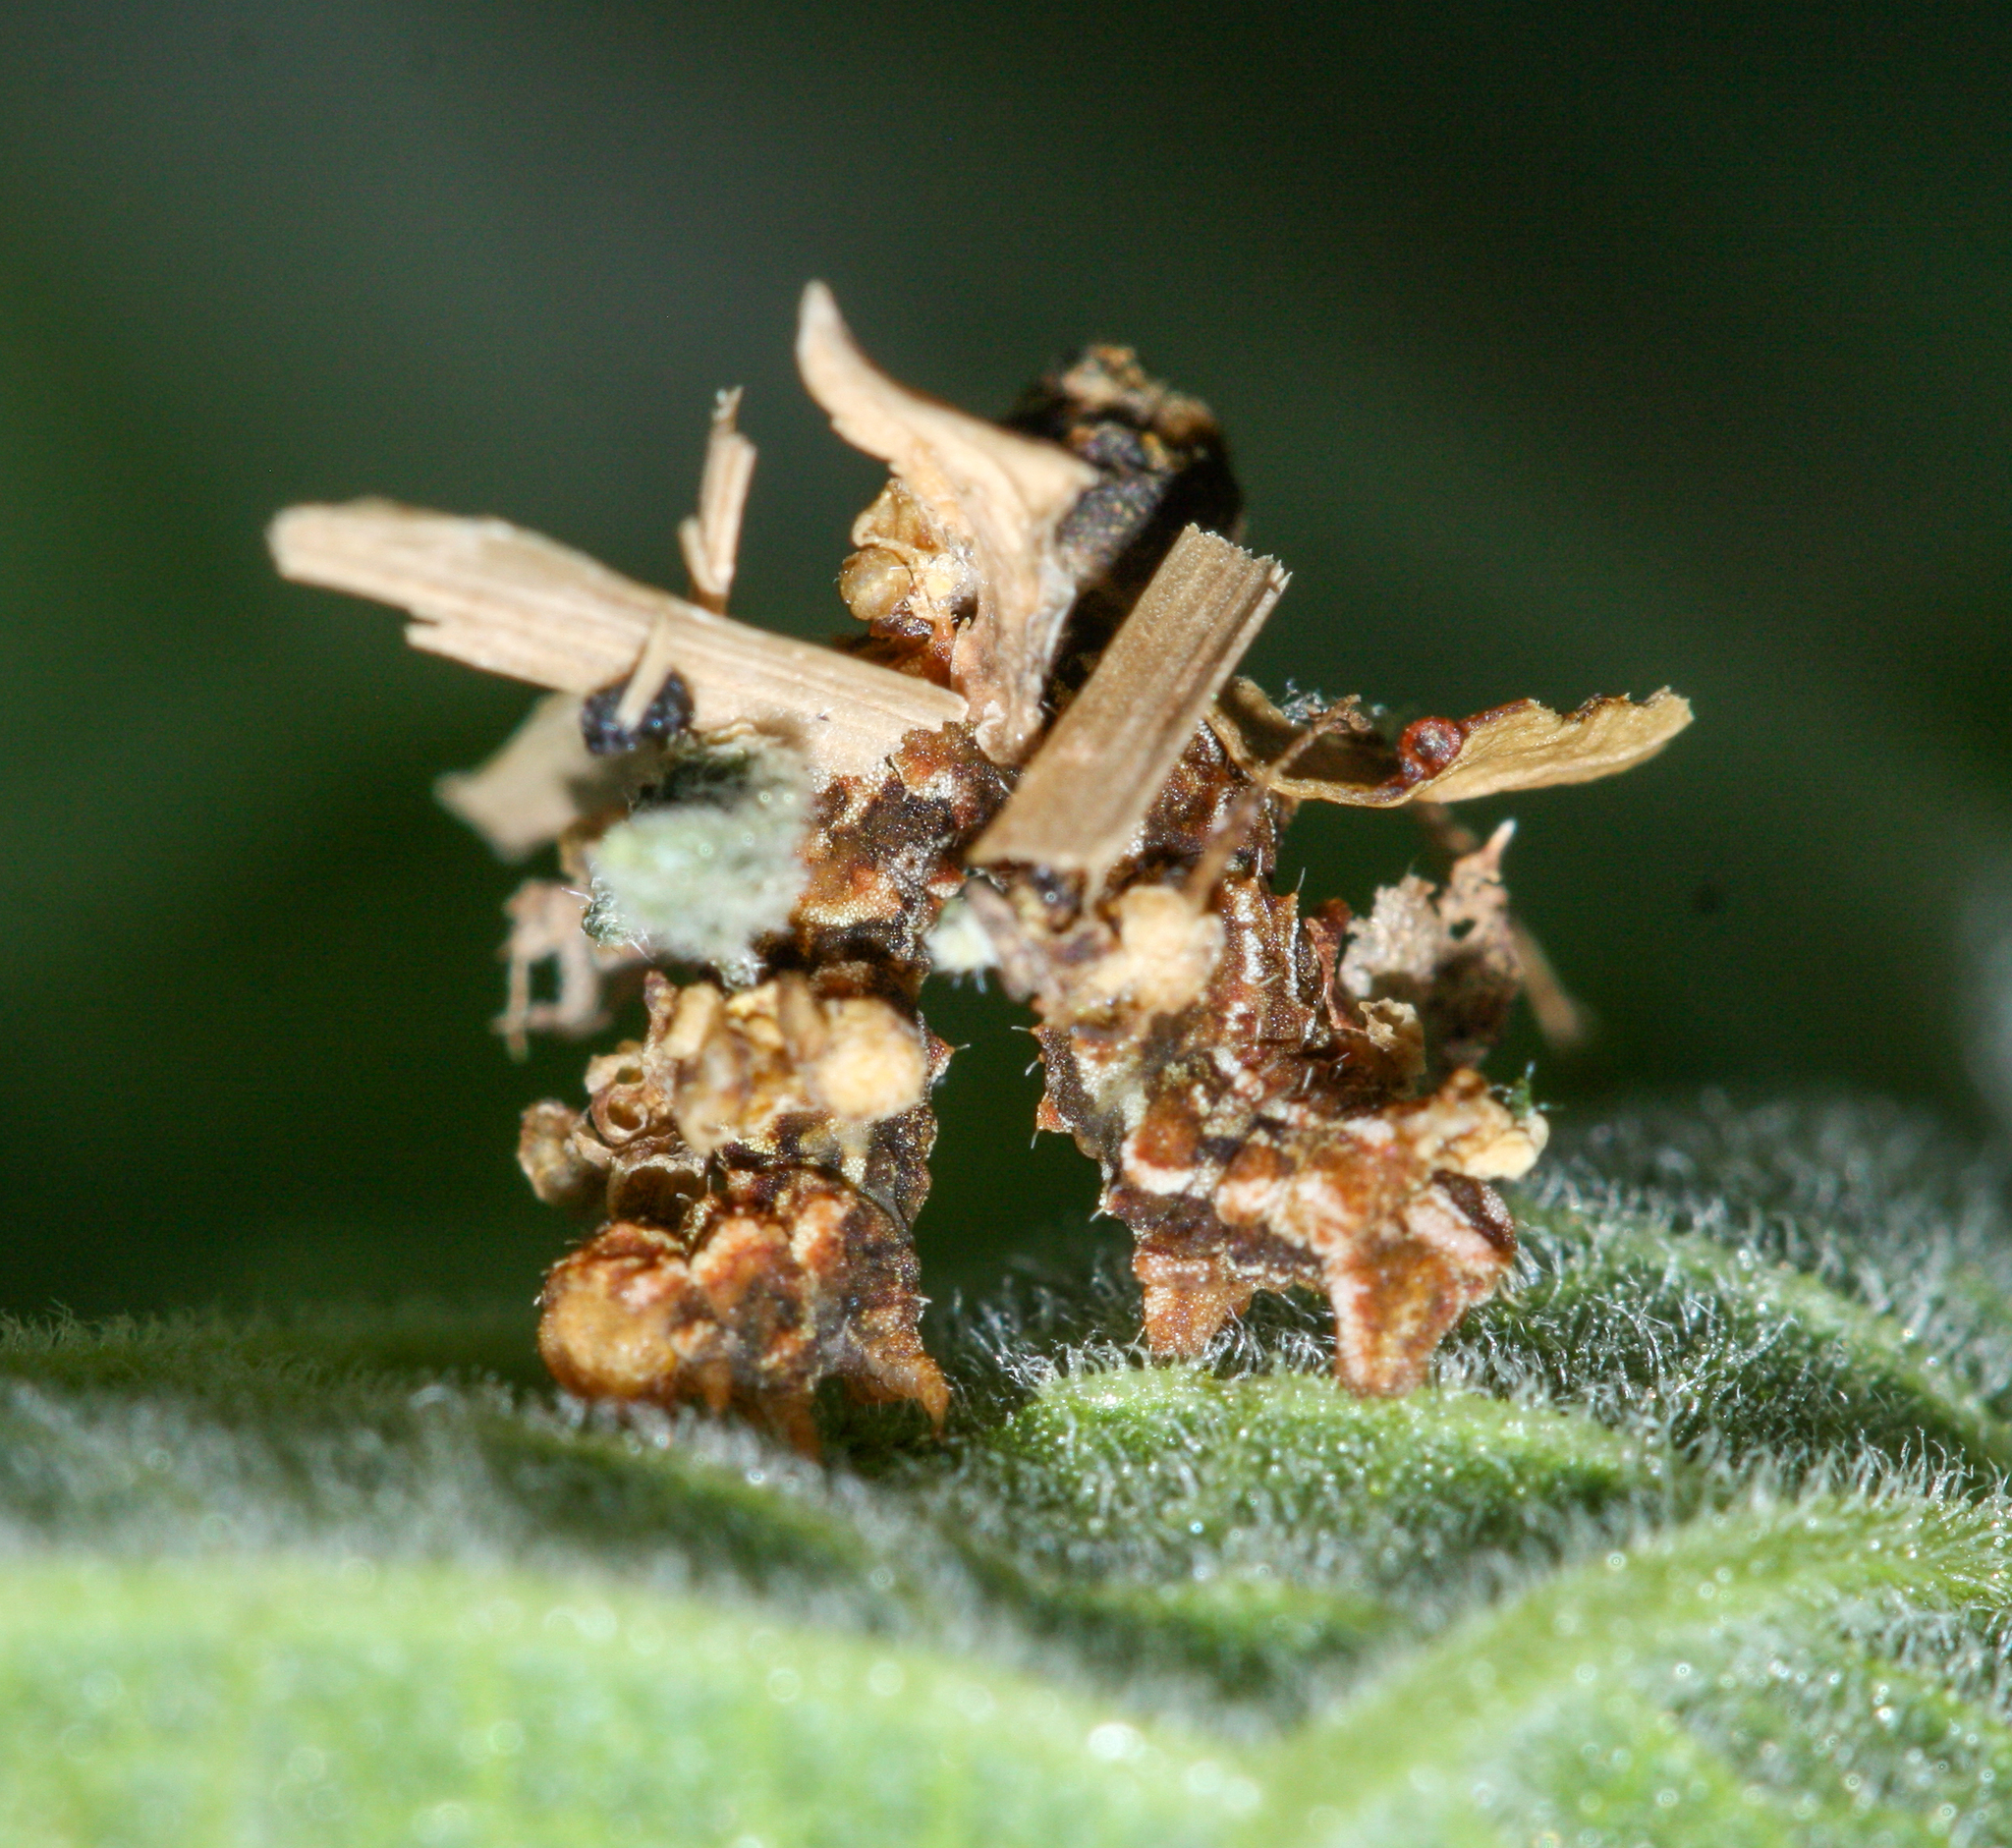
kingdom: Animalia
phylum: Arthropoda
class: Insecta
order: Lepidoptera
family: Geometridae
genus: Synchlora
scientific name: Synchlora aerata
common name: Wavy-lined emerald
